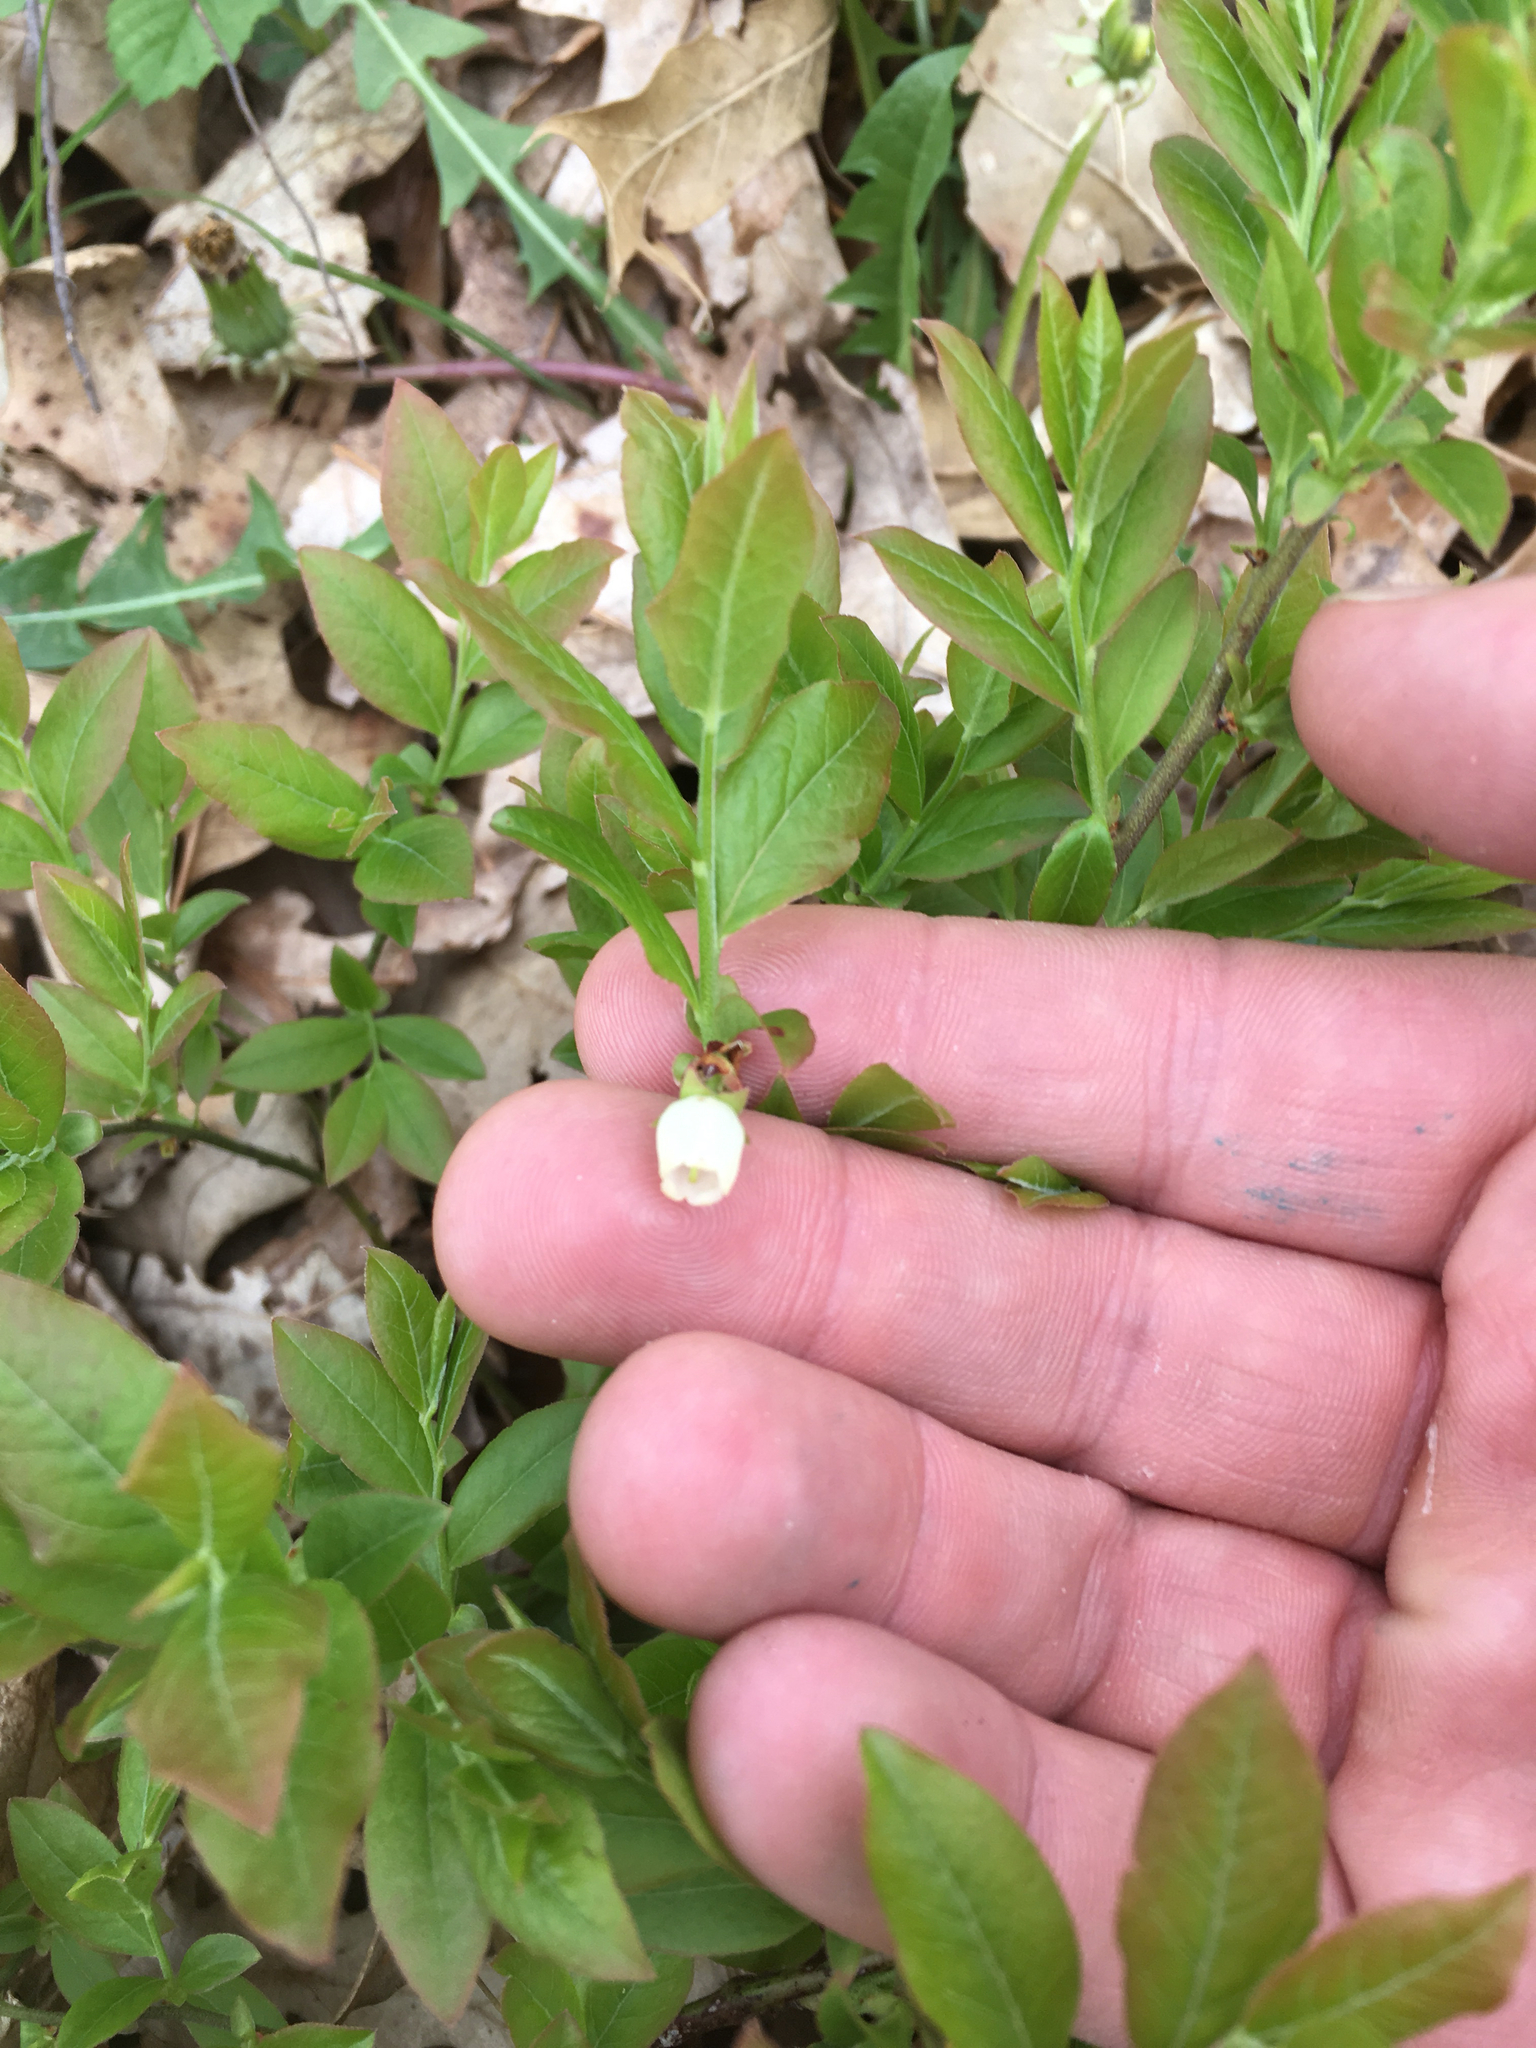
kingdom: Plantae
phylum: Tracheophyta
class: Magnoliopsida
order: Ericales
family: Ericaceae
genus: Vaccinium
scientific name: Vaccinium angustifolium
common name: Early lowbush blueberry
